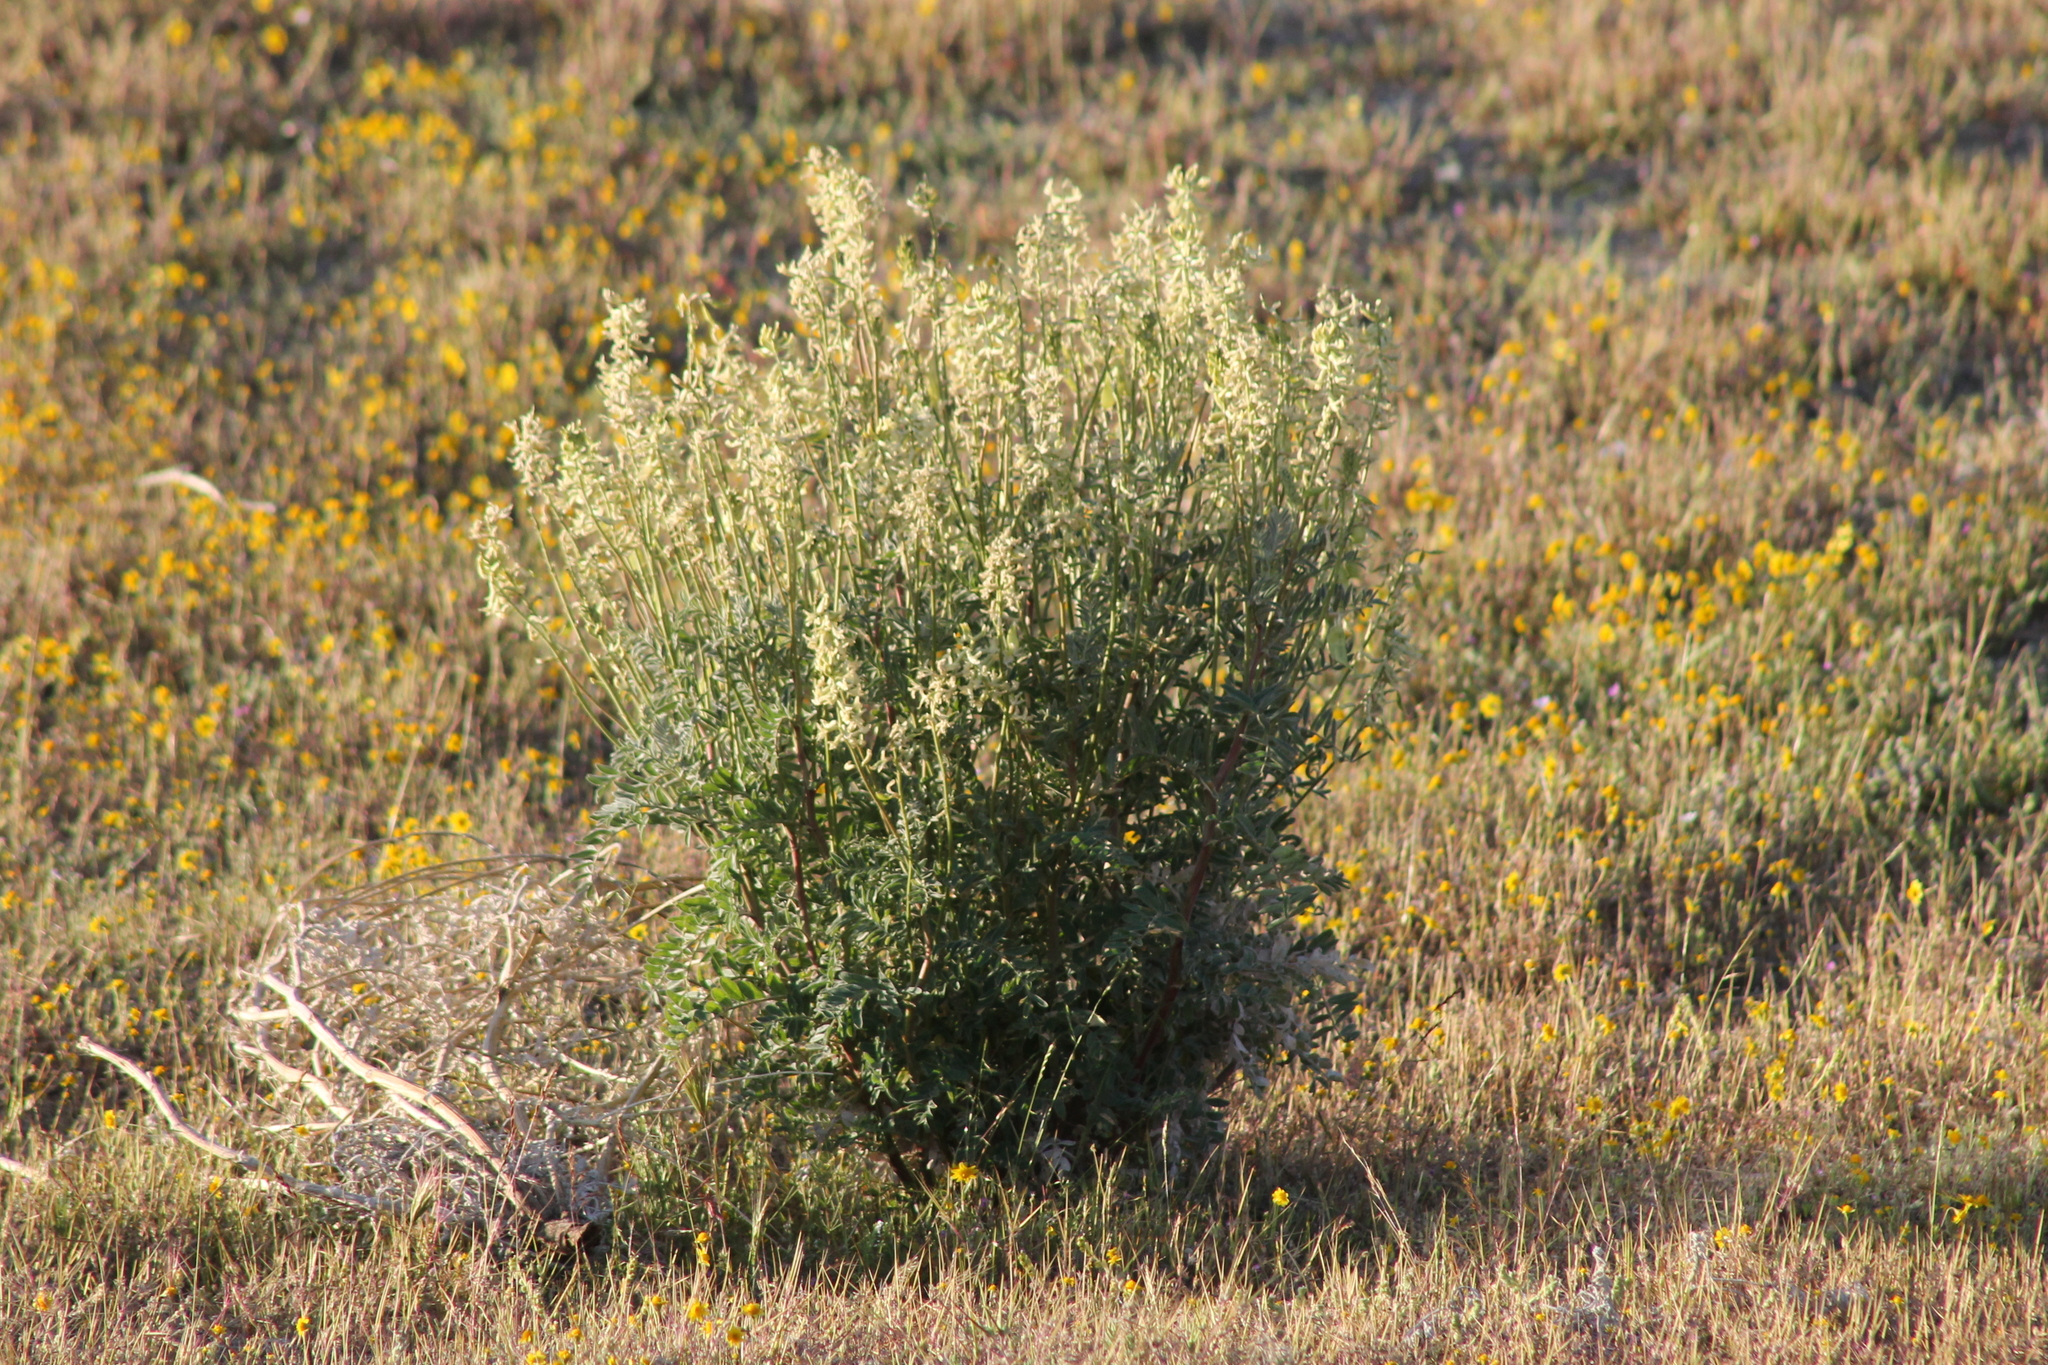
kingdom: Plantae
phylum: Tracheophyta
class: Magnoliopsida
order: Fabales
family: Fabaceae
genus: Astragalus
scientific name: Astragalus oxyphysus
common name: Stanislaus milk-vetch
